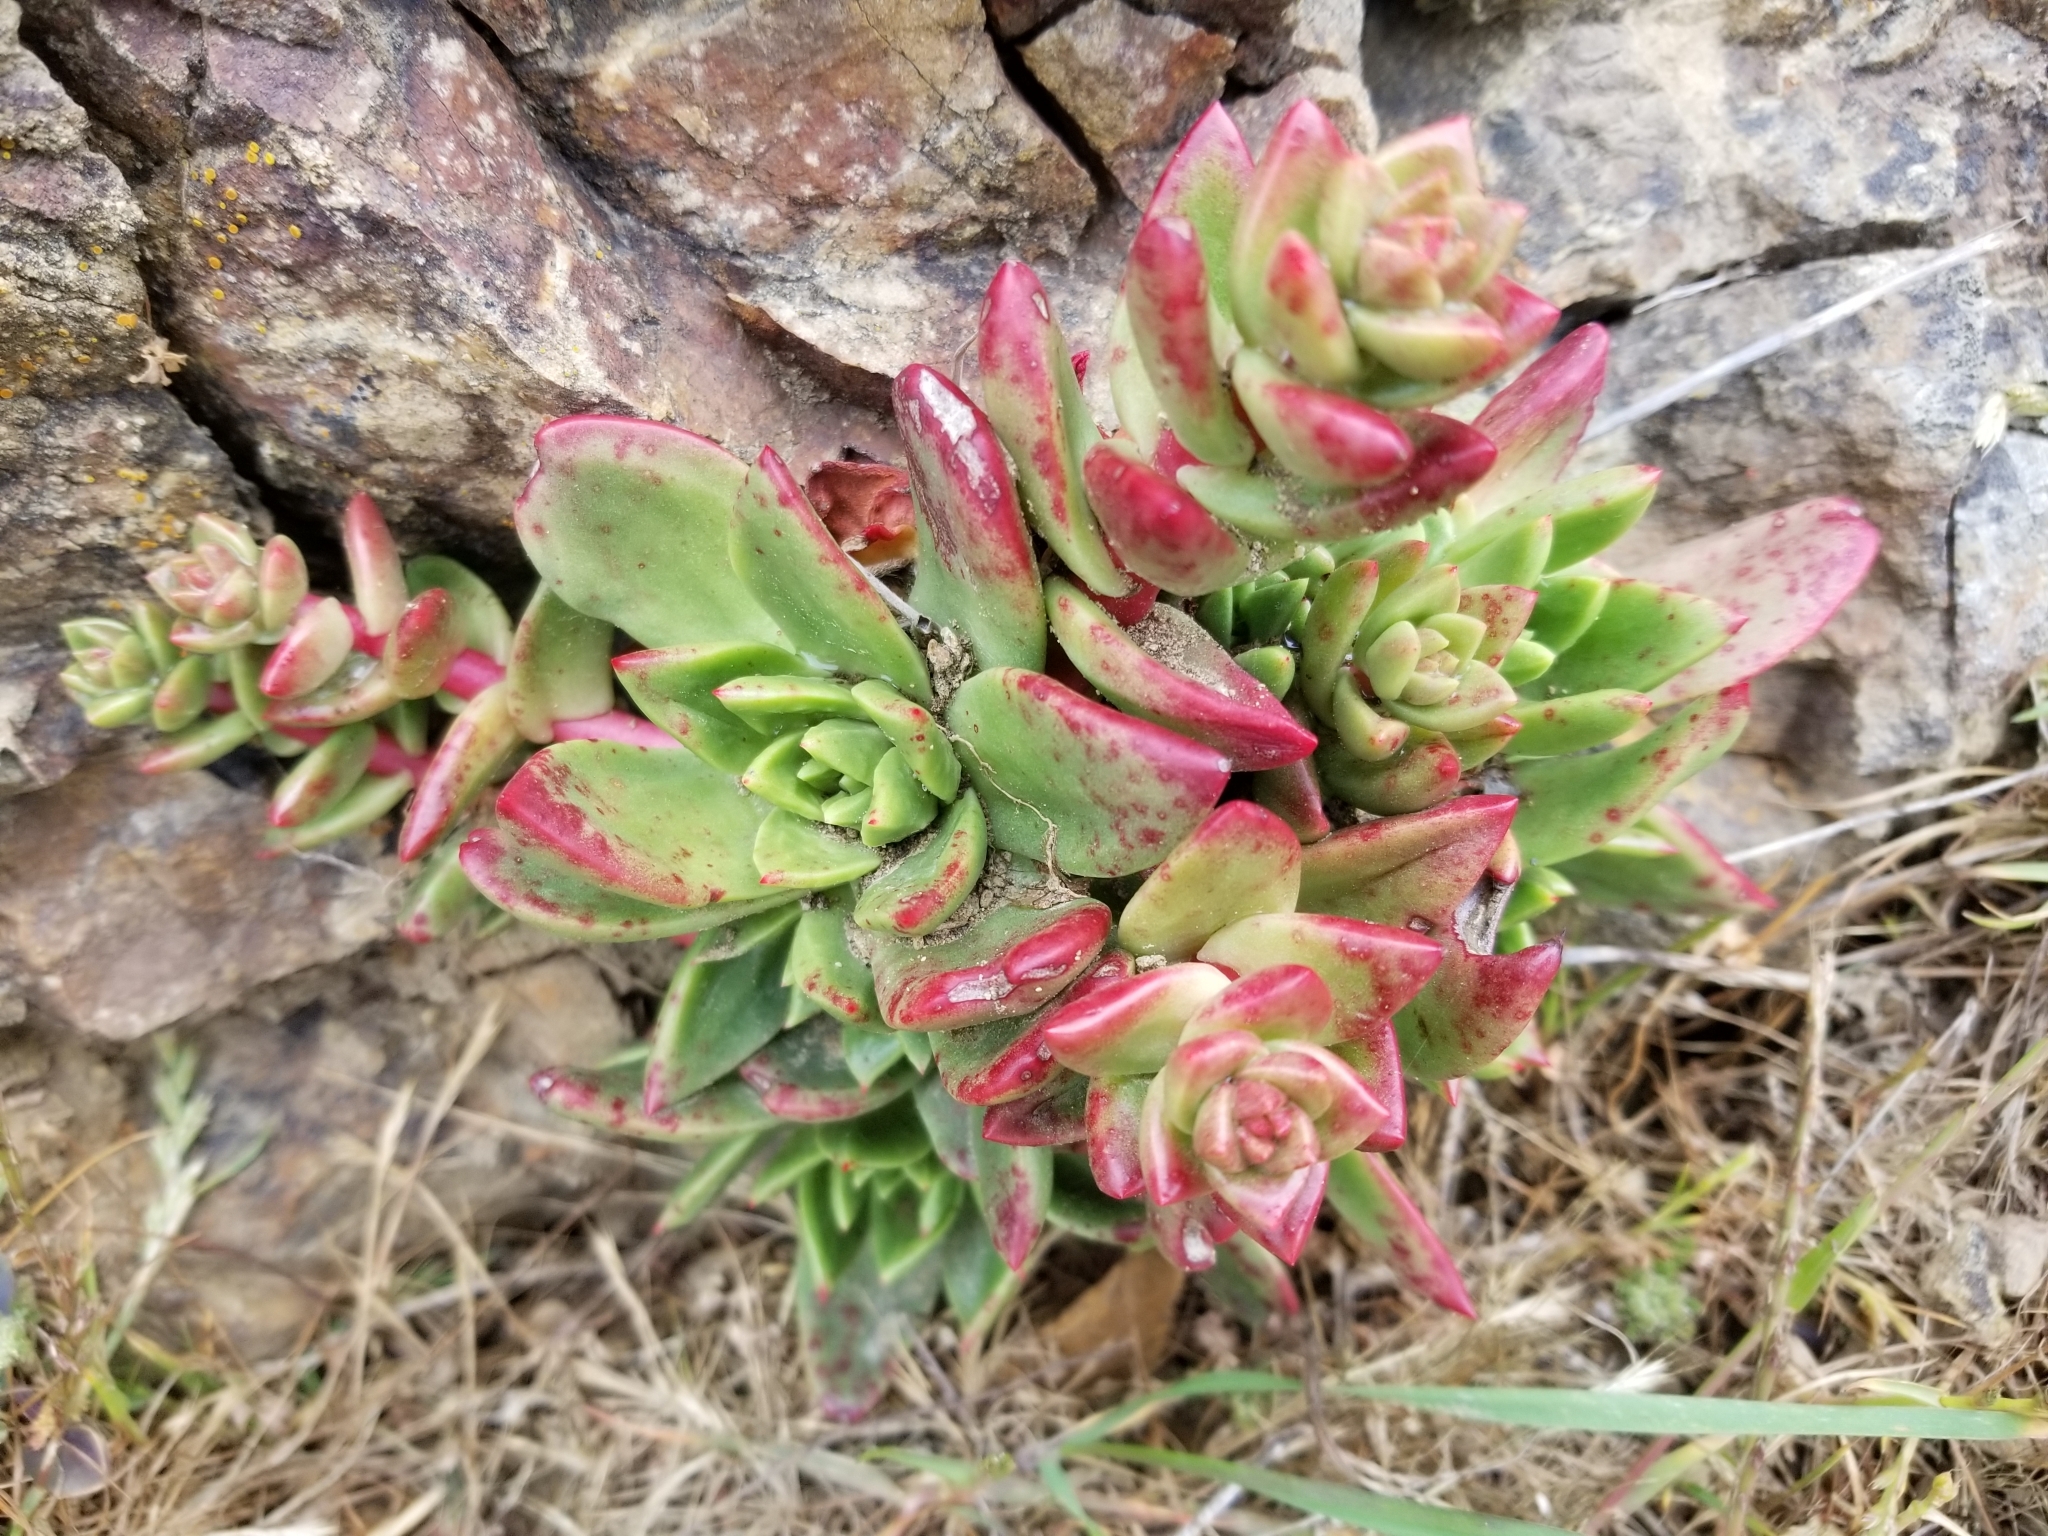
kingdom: Plantae
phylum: Tracheophyta
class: Magnoliopsida
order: Saxifragales
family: Crassulaceae
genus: Dudleya
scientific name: Dudleya farinosa
